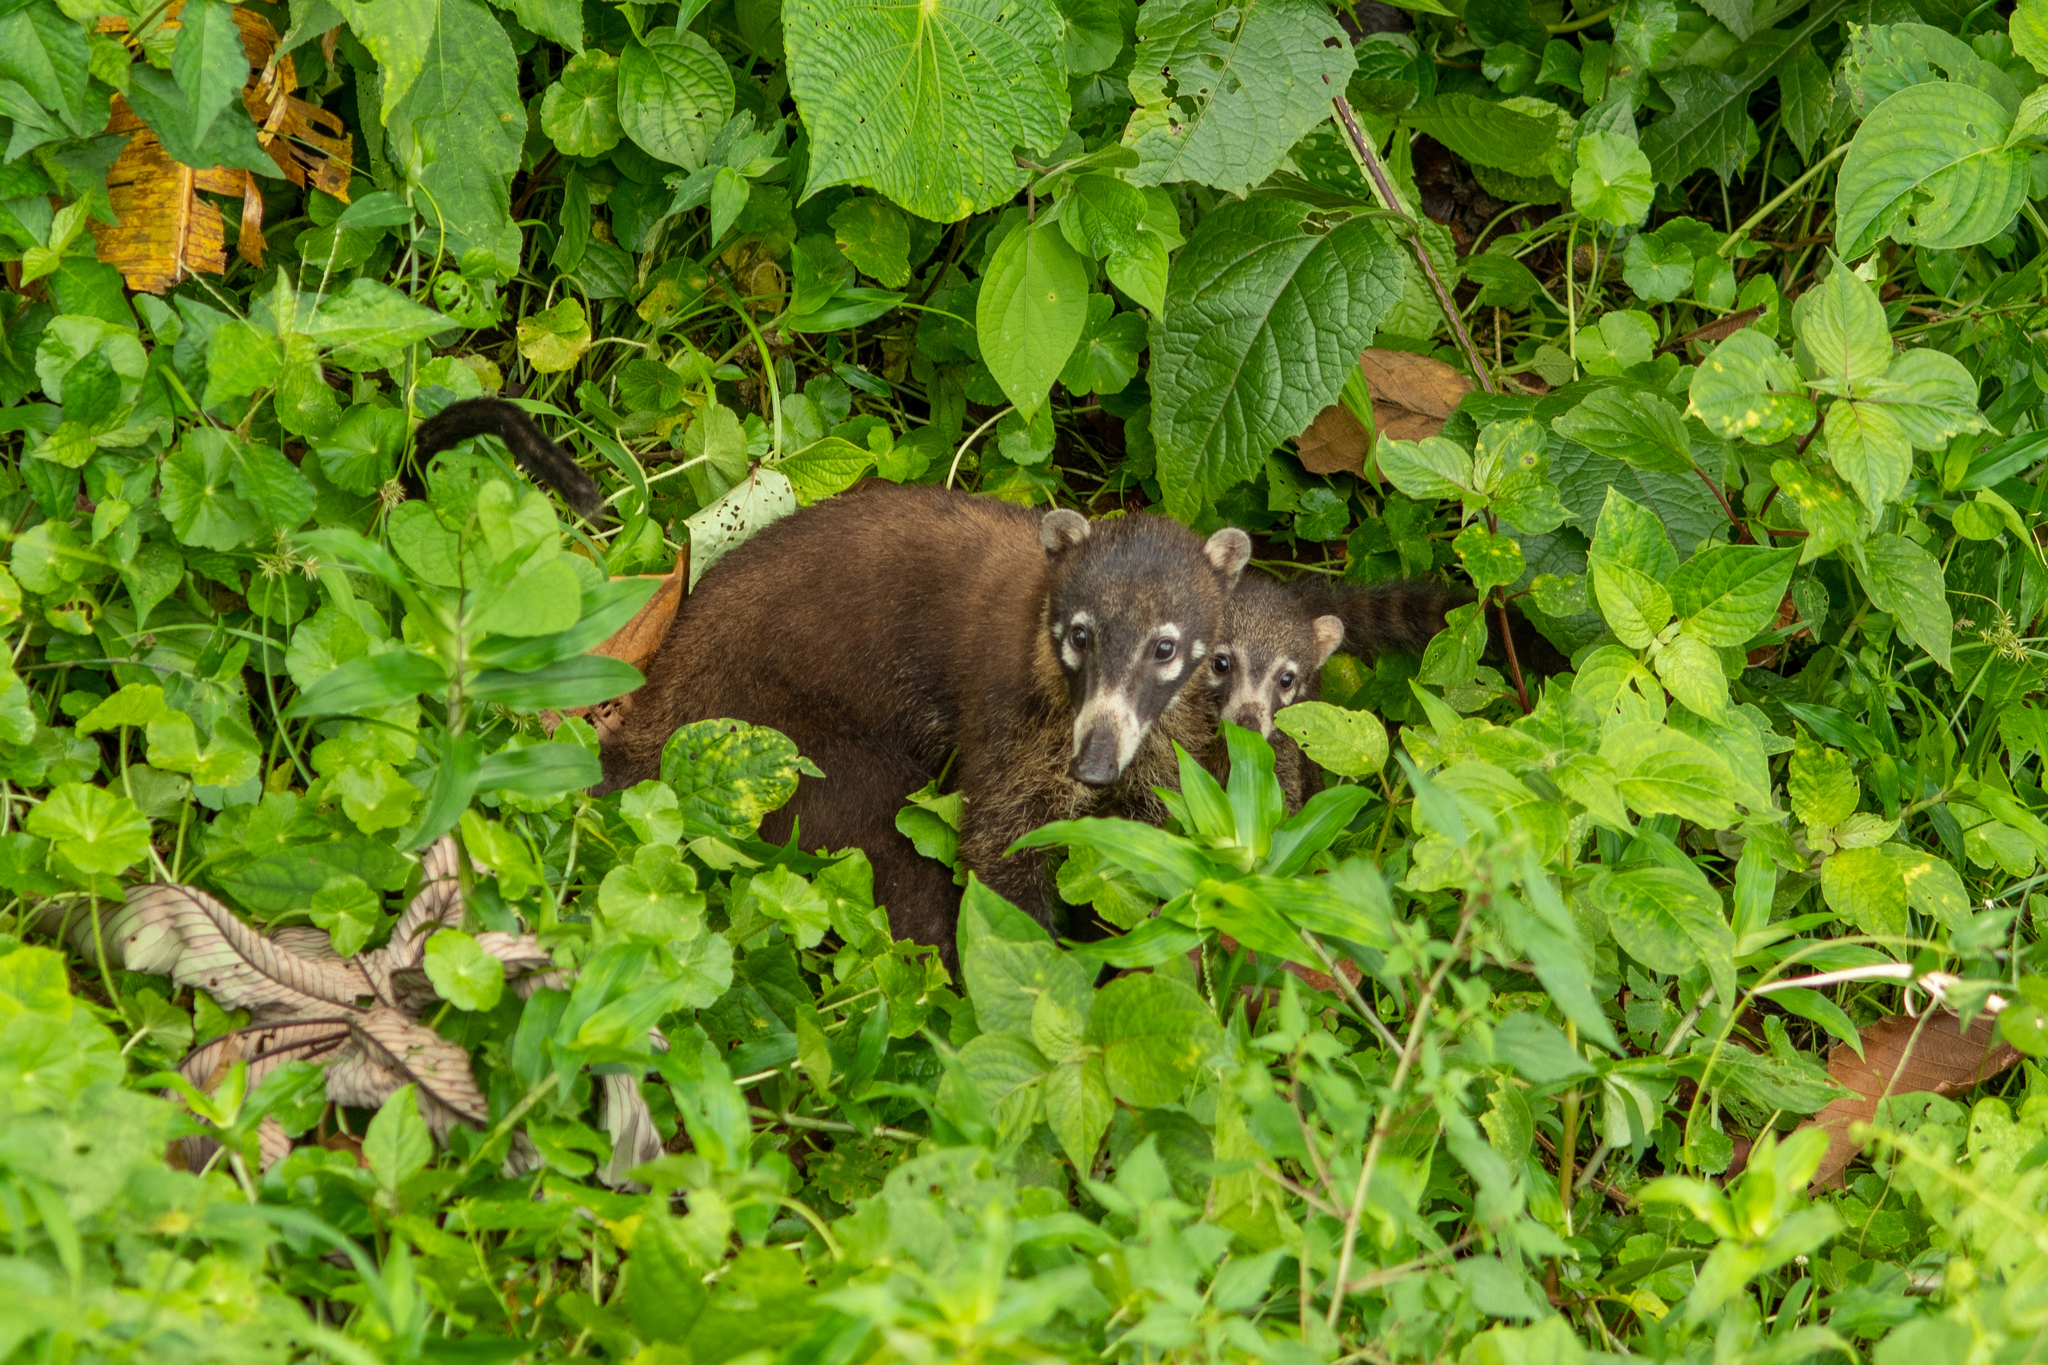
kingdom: Animalia
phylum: Chordata
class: Mammalia
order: Carnivora
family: Procyonidae
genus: Nasua
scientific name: Nasua narica
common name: White-nosed coati
